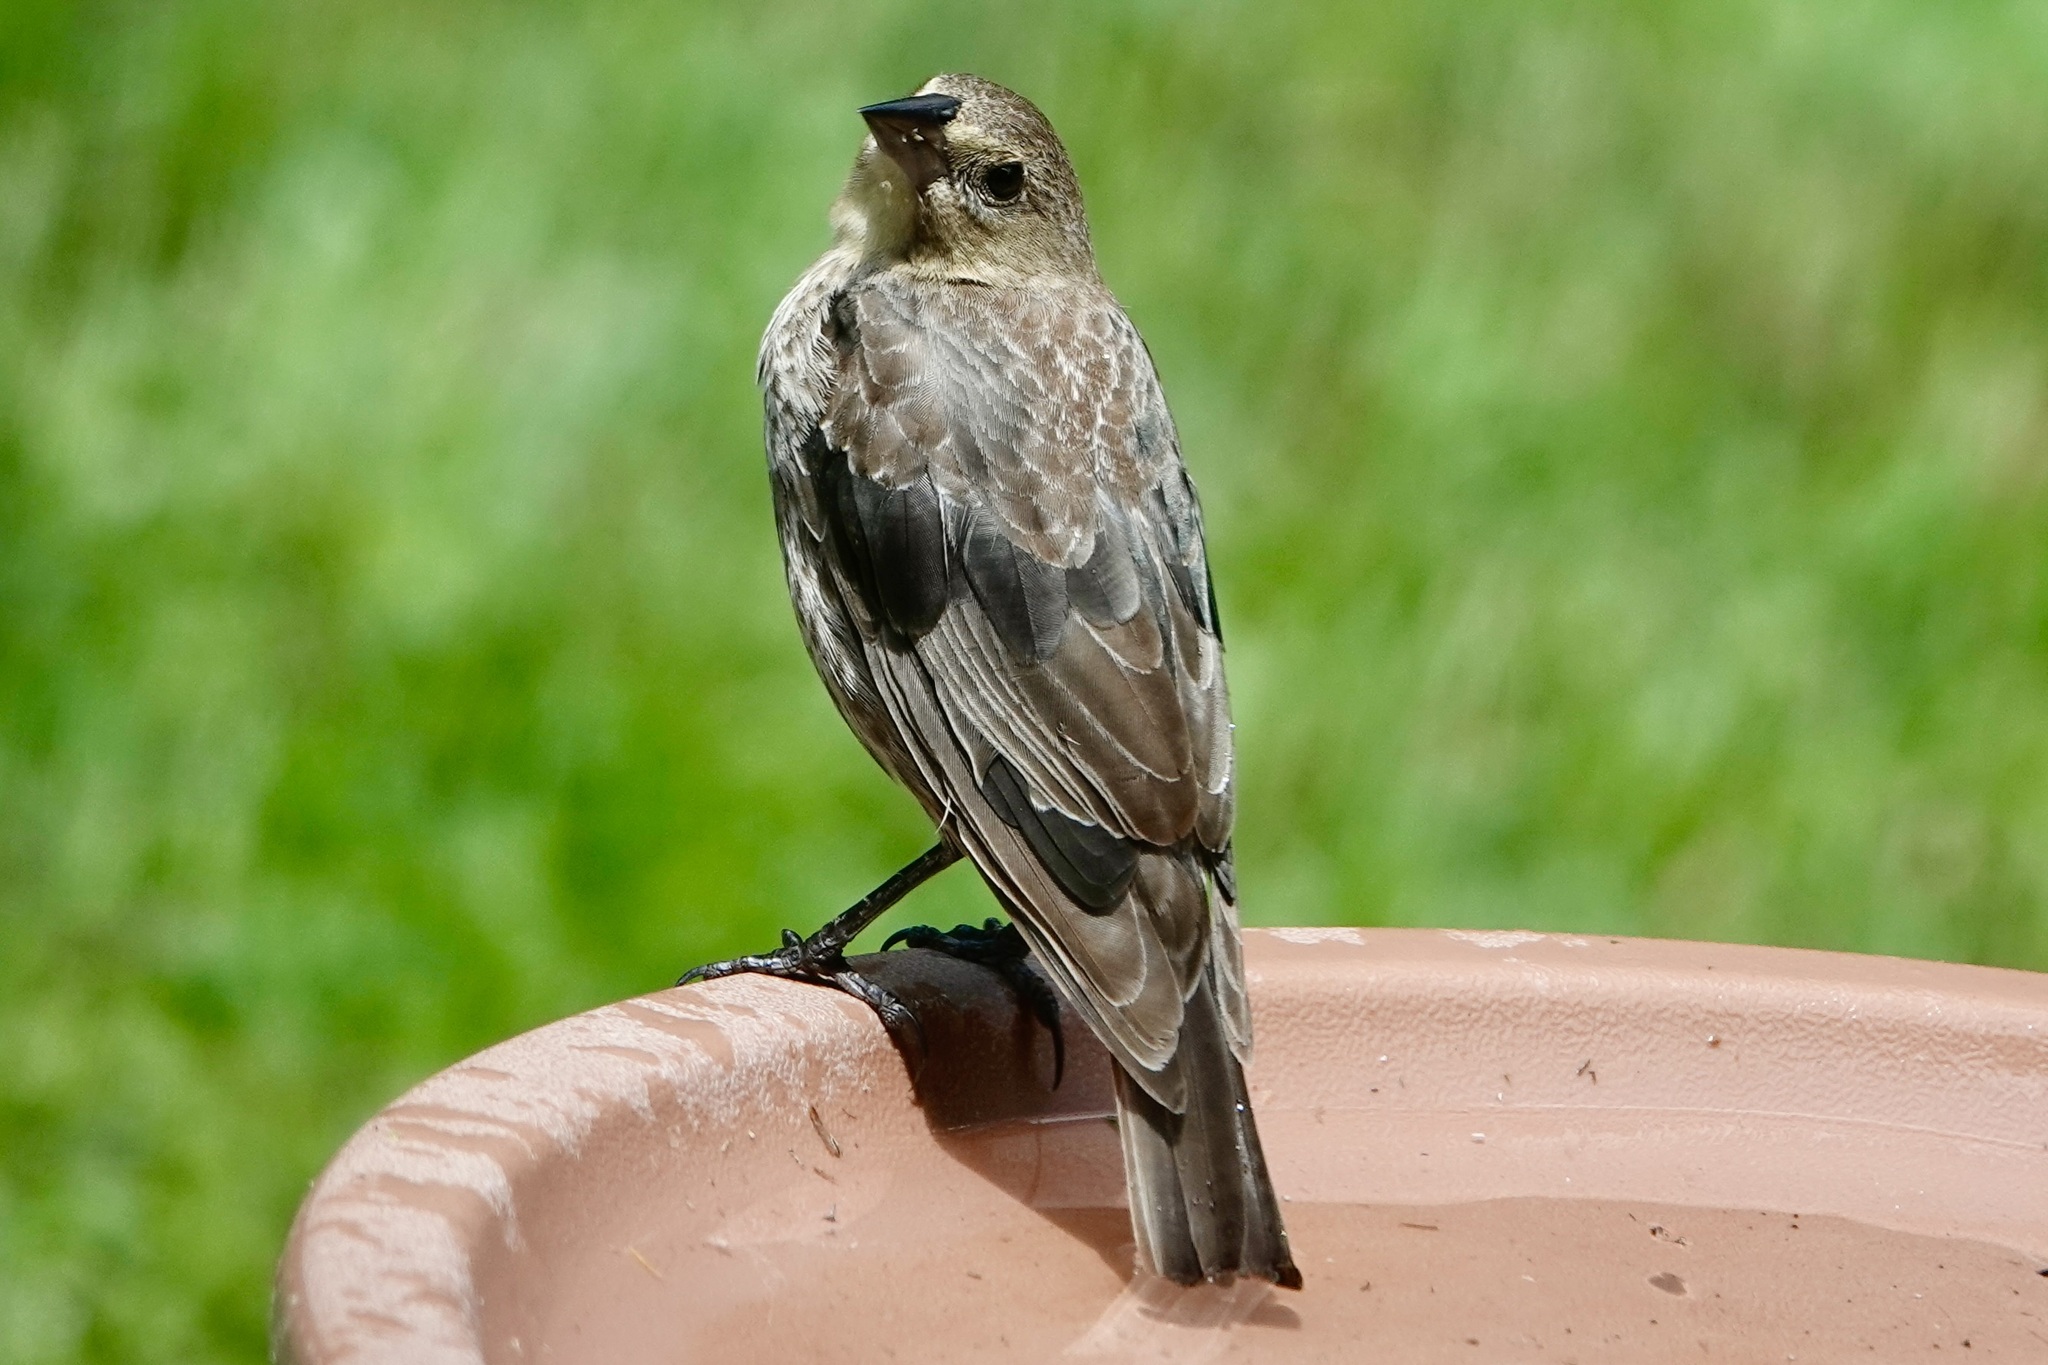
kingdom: Animalia
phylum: Chordata
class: Aves
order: Passeriformes
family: Icteridae
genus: Molothrus
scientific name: Molothrus ater
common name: Brown-headed cowbird
